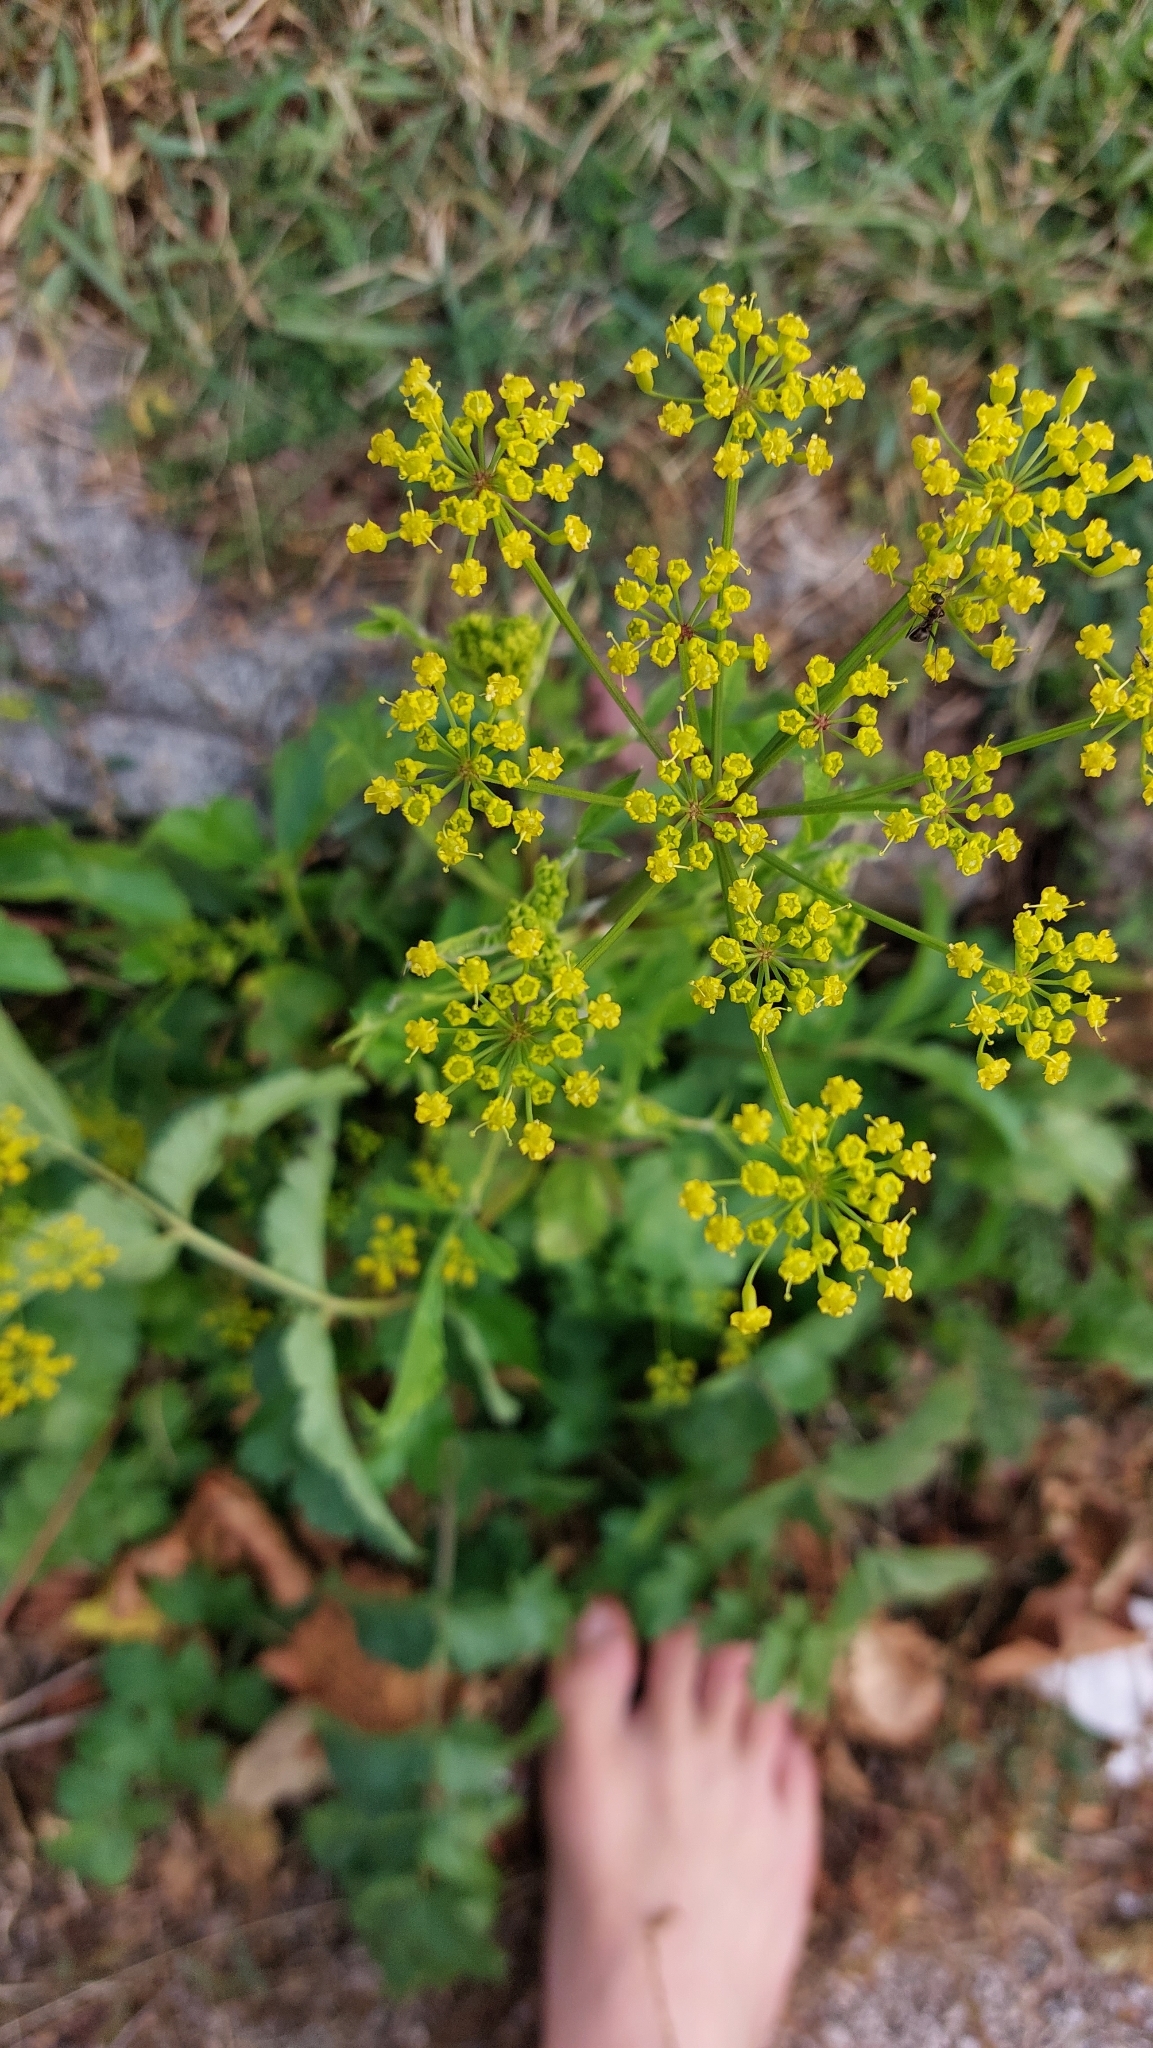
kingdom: Plantae
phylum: Tracheophyta
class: Magnoliopsida
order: Apiales
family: Apiaceae
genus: Pastinaca
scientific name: Pastinaca sativa
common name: Wild parsnip
